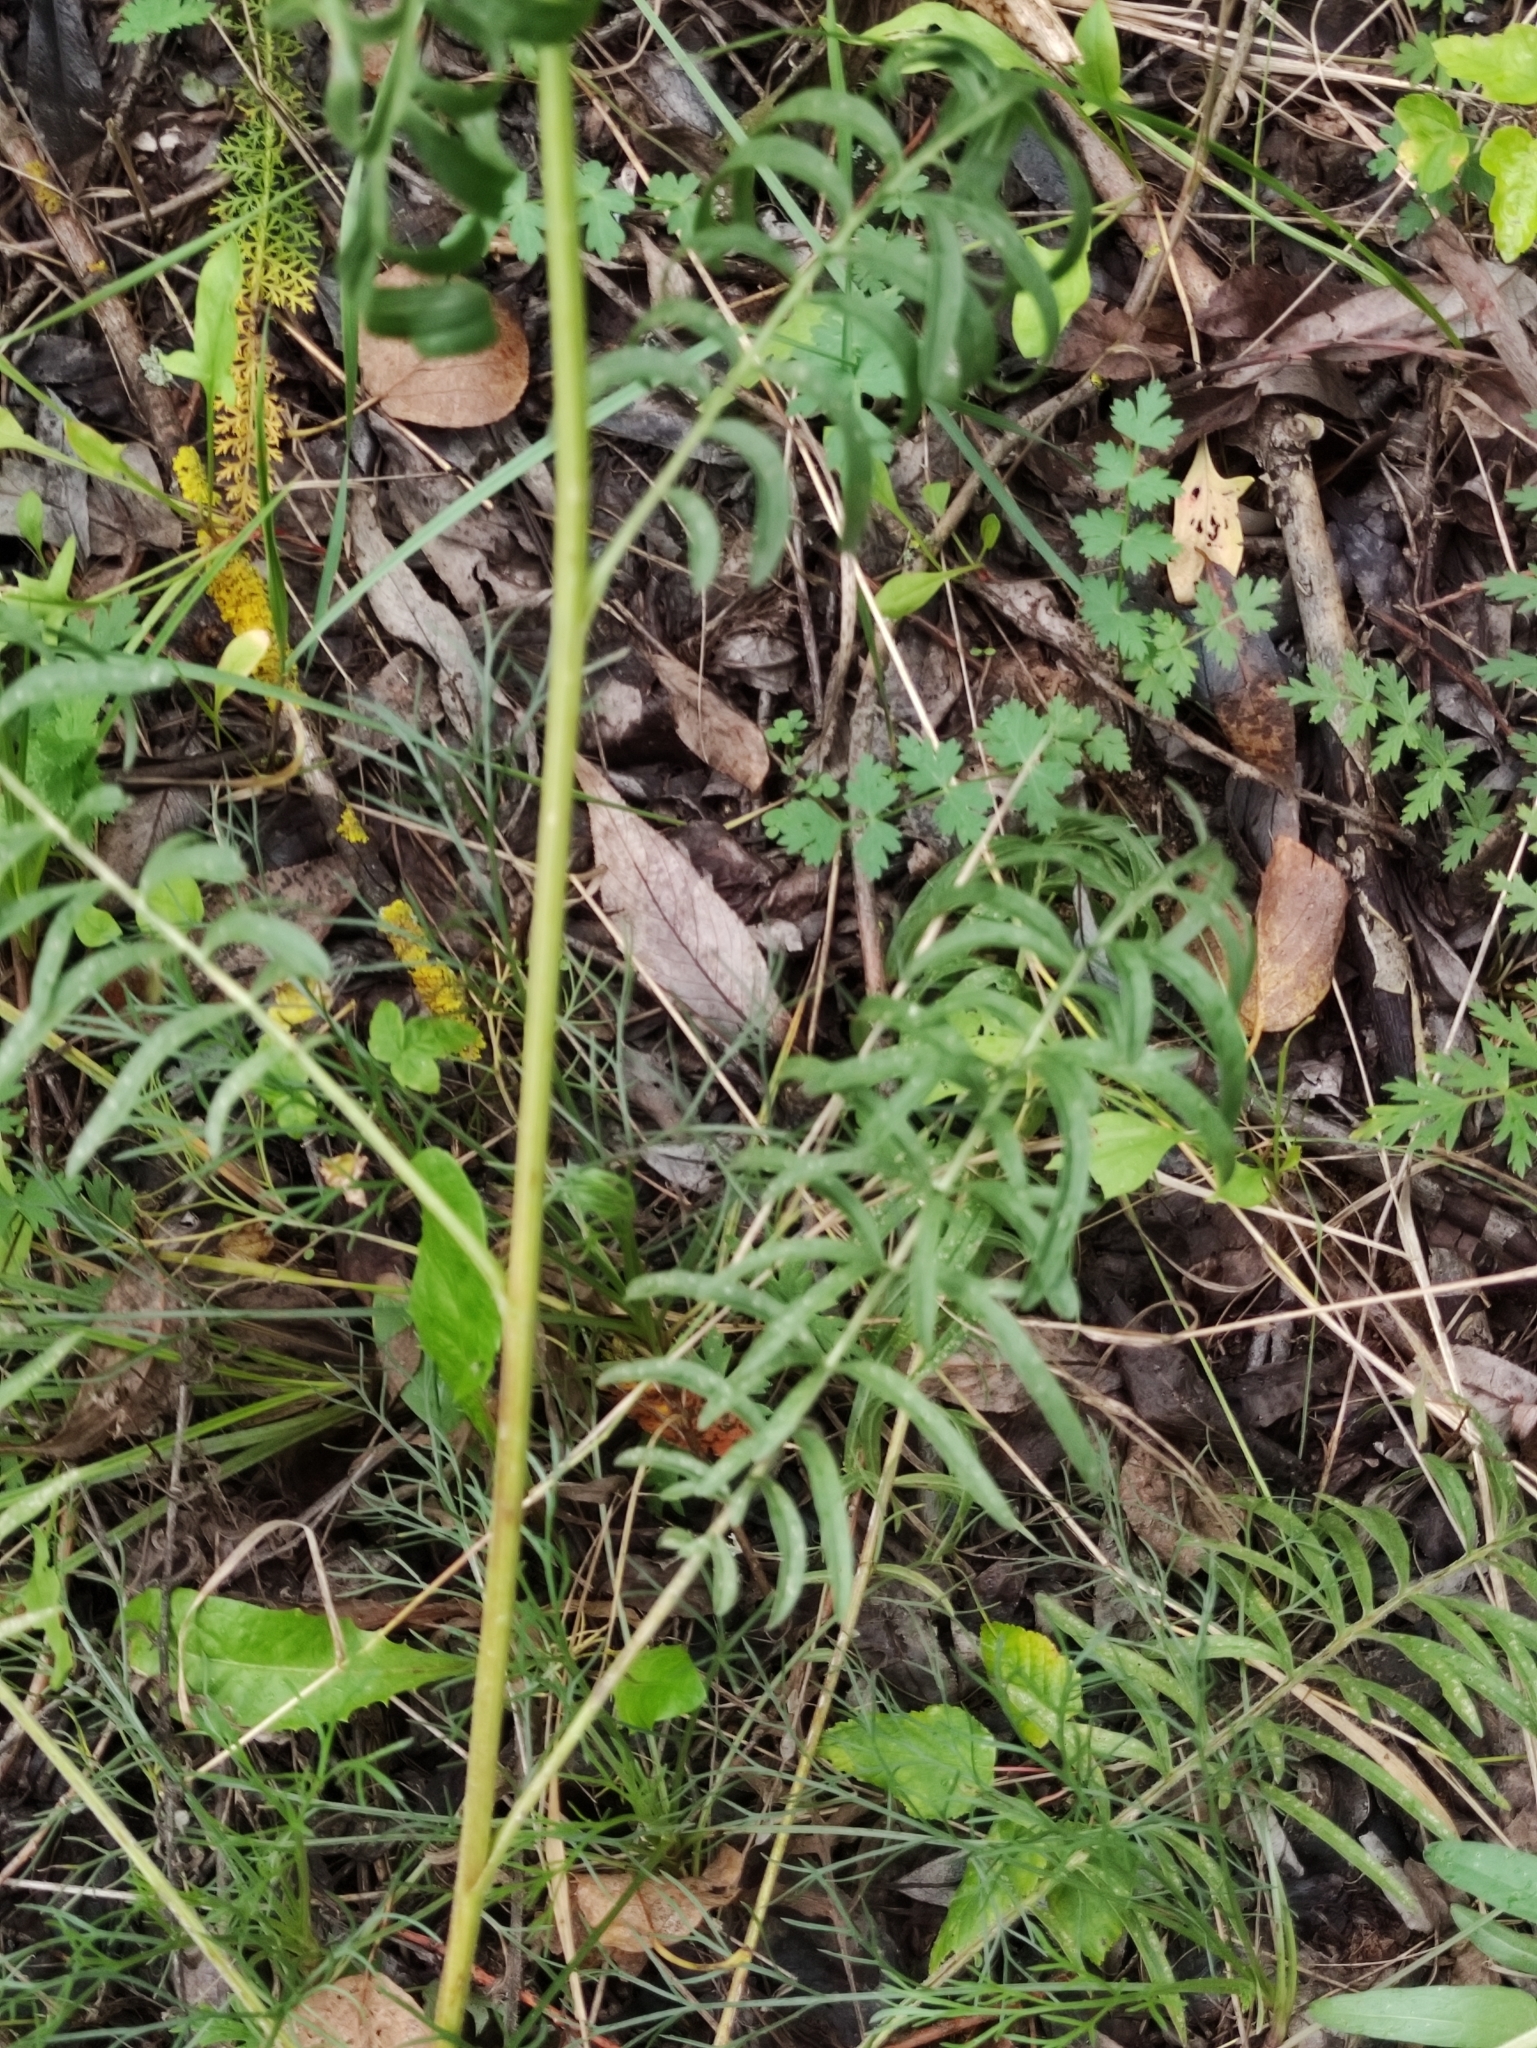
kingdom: Plantae
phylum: Tracheophyta
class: Magnoliopsida
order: Asterales
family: Asteraceae
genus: Centaurea
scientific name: Centaurea scabiosa
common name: Greater knapweed
